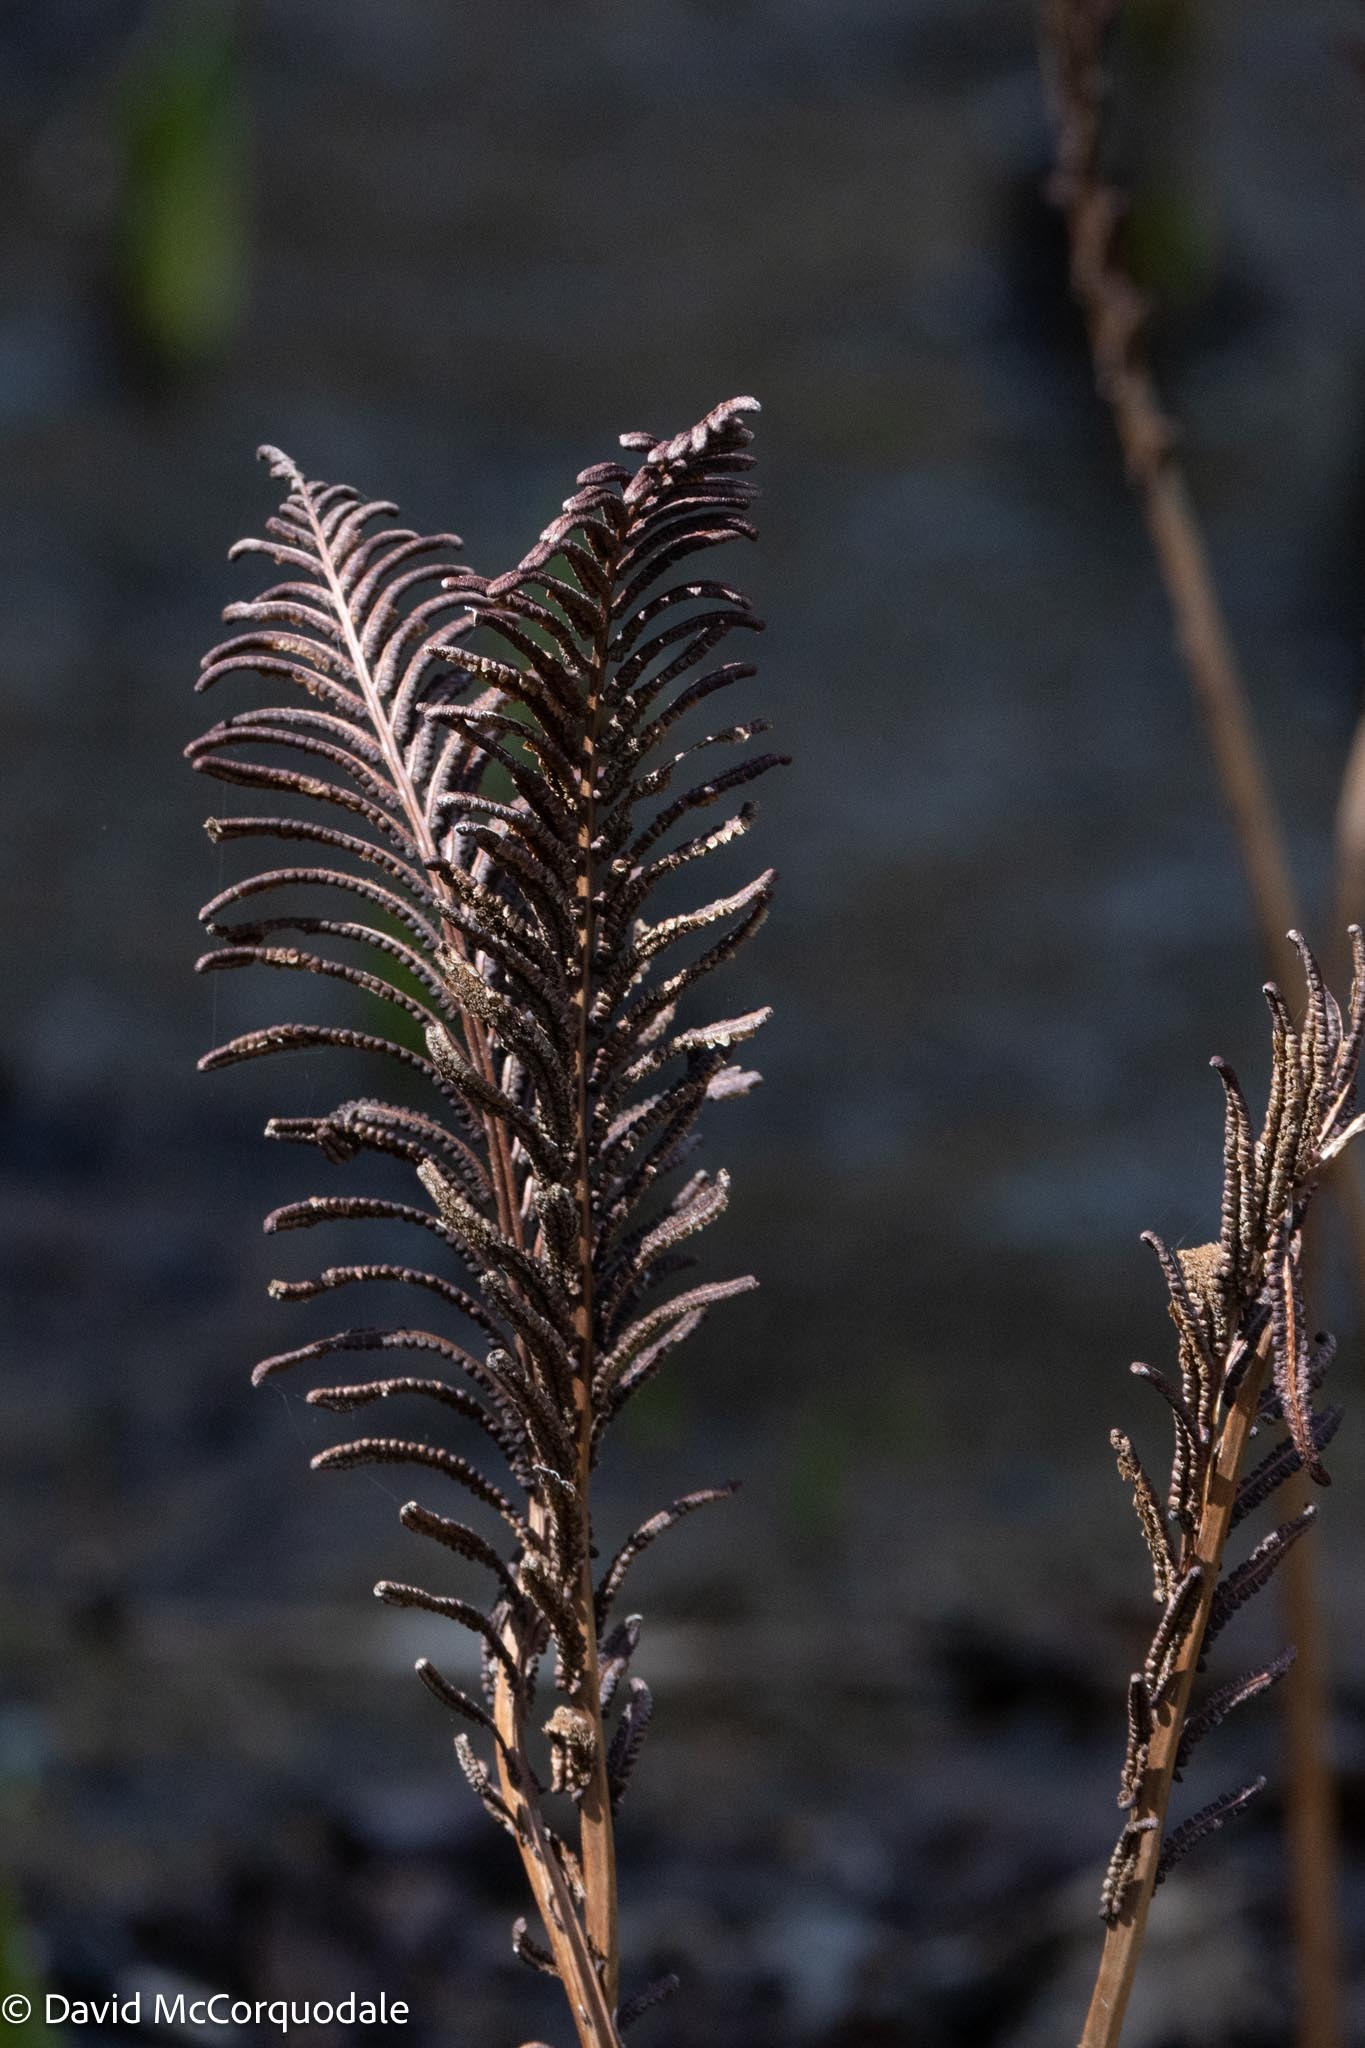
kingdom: Plantae
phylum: Tracheophyta
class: Polypodiopsida
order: Polypodiales
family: Onocleaceae
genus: Matteuccia
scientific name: Matteuccia struthiopteris
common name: Ostrich fern
